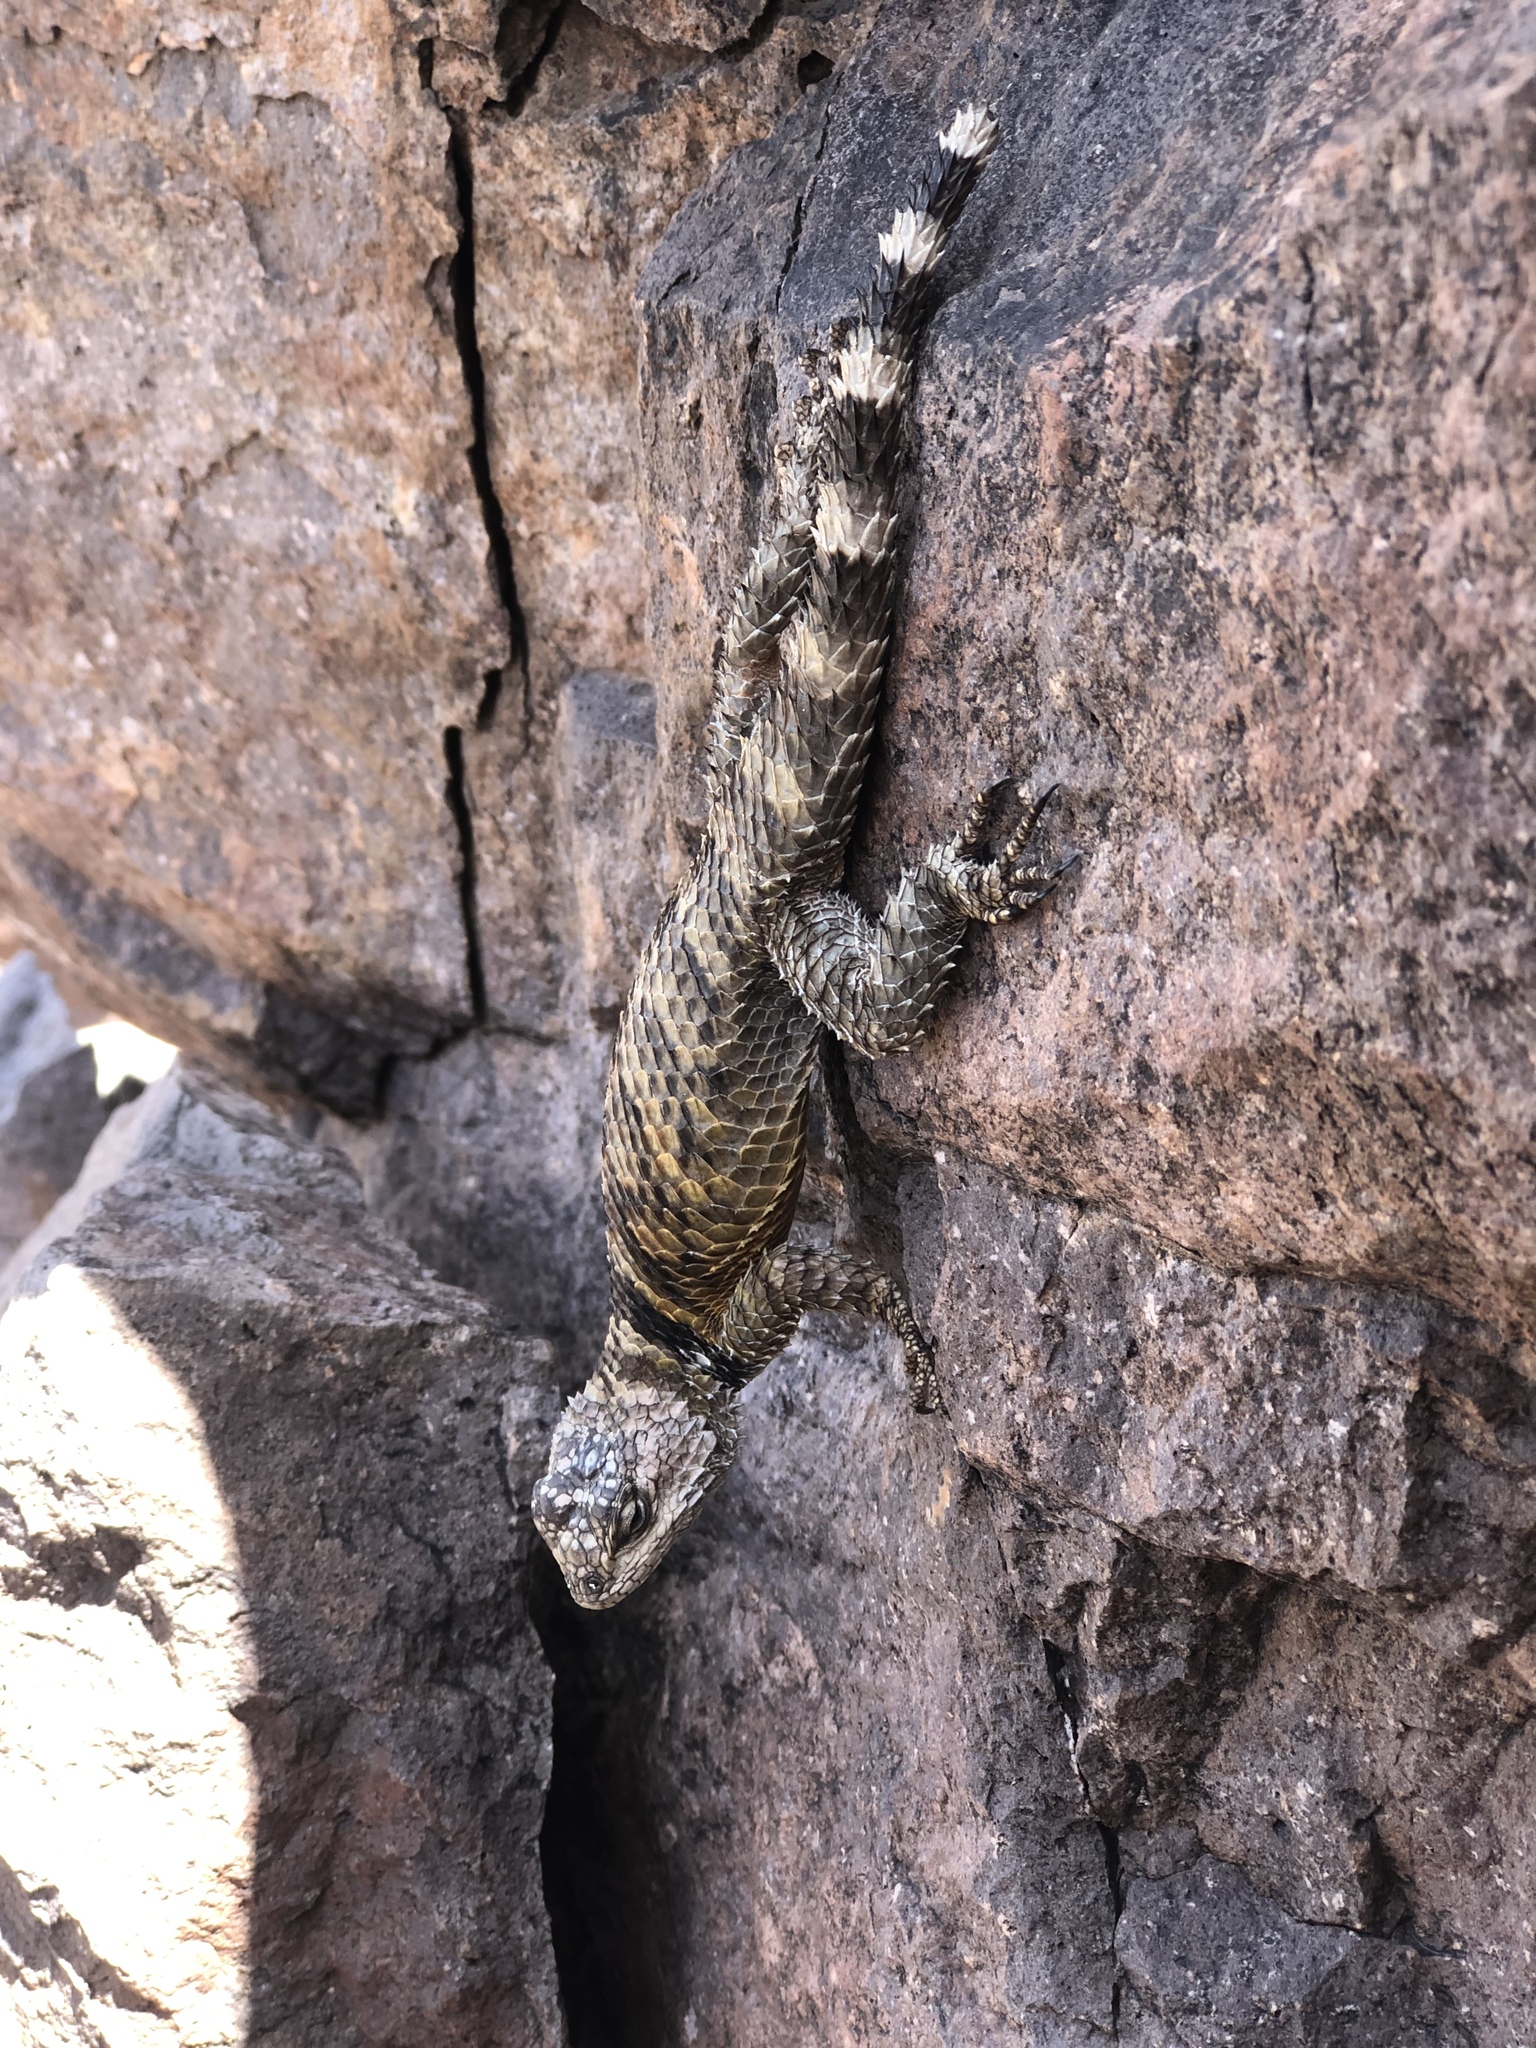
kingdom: Animalia
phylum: Chordata
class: Squamata
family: Phrynosomatidae
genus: Sceloporus
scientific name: Sceloporus poinsettii
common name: Crevice spiny lizard
